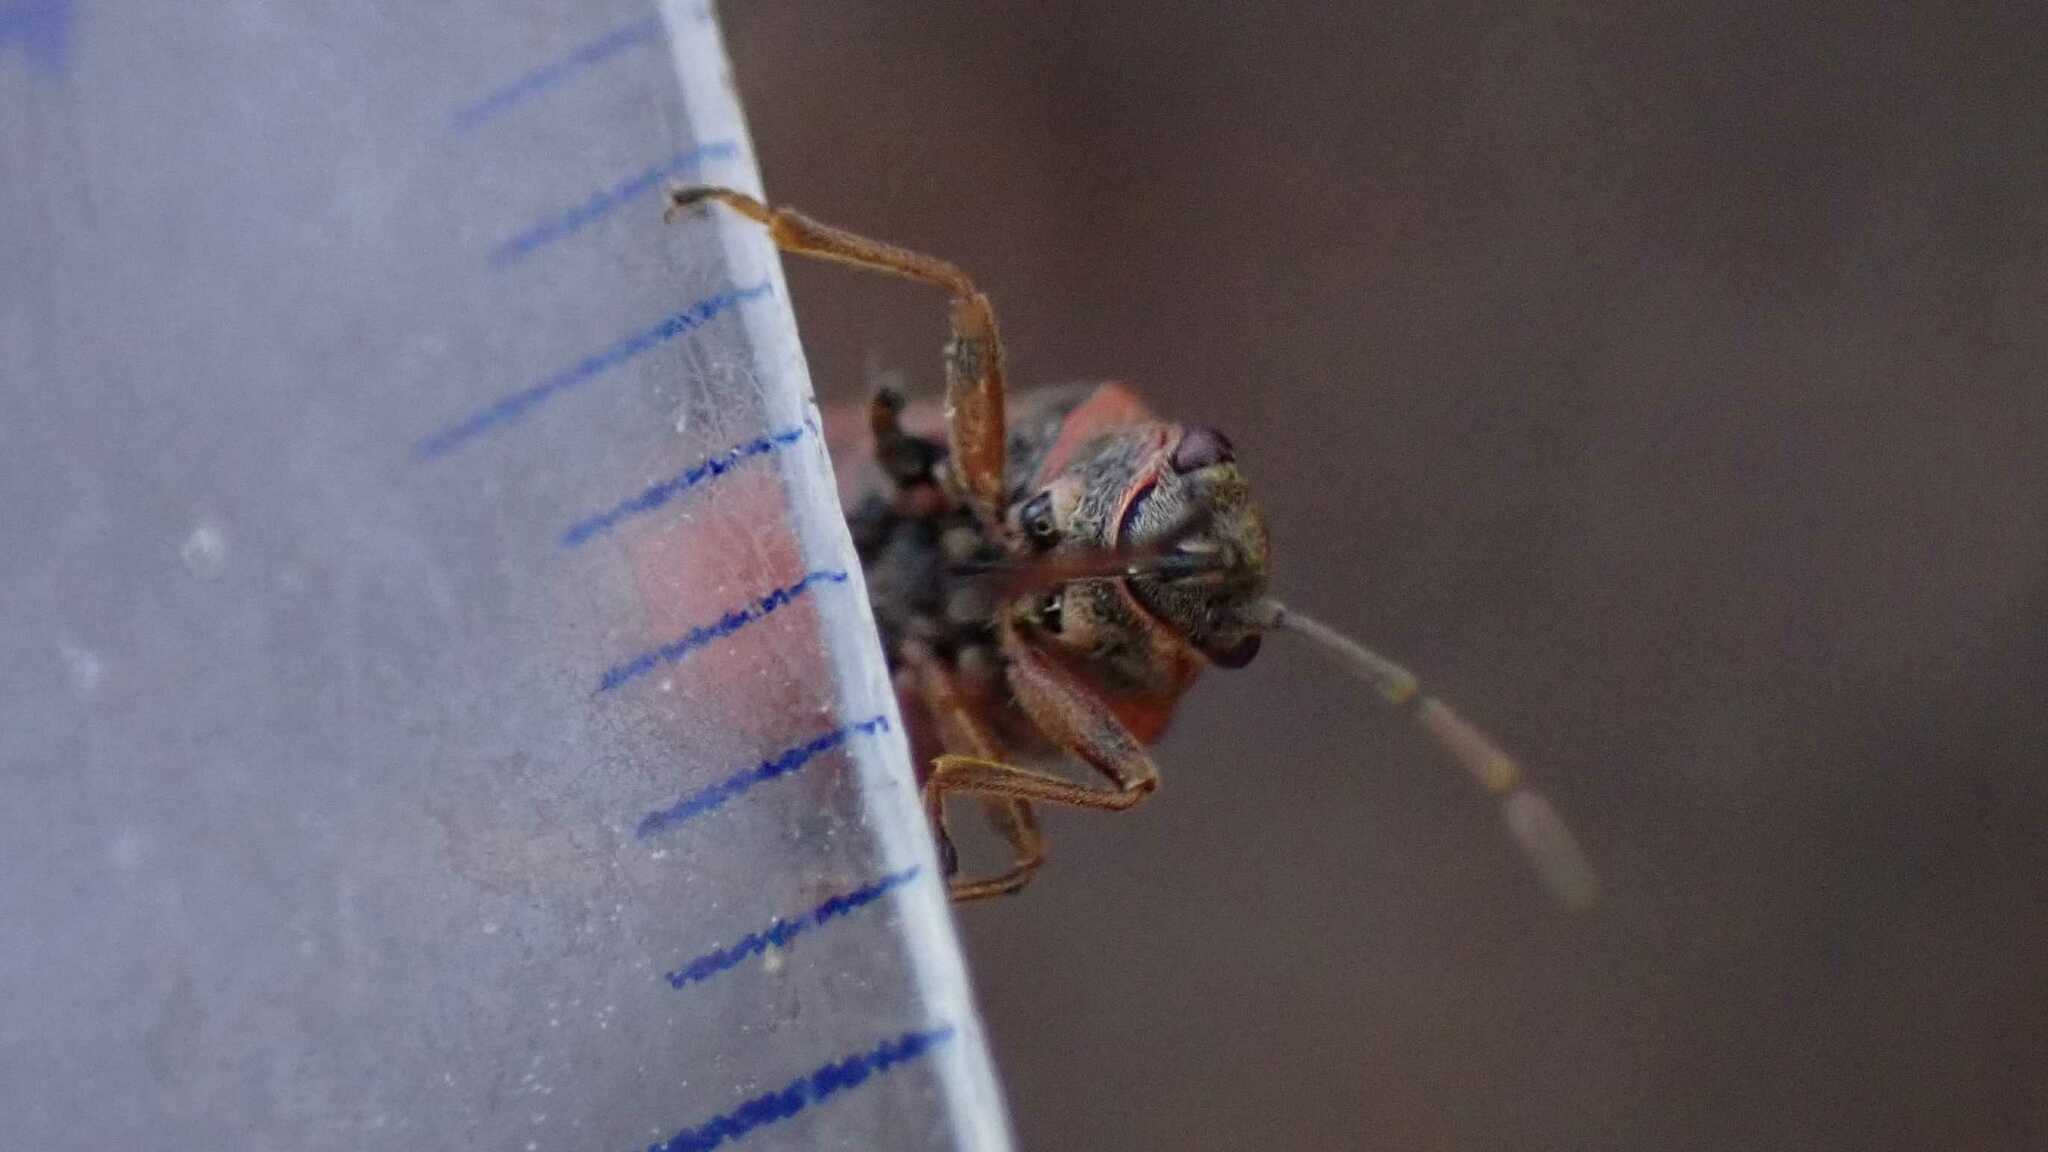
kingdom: Animalia
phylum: Arthropoda
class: Insecta
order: Hemiptera
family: Lygaeidae
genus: Arocatus
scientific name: Arocatus melanocephalus
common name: Lygaeid bug
